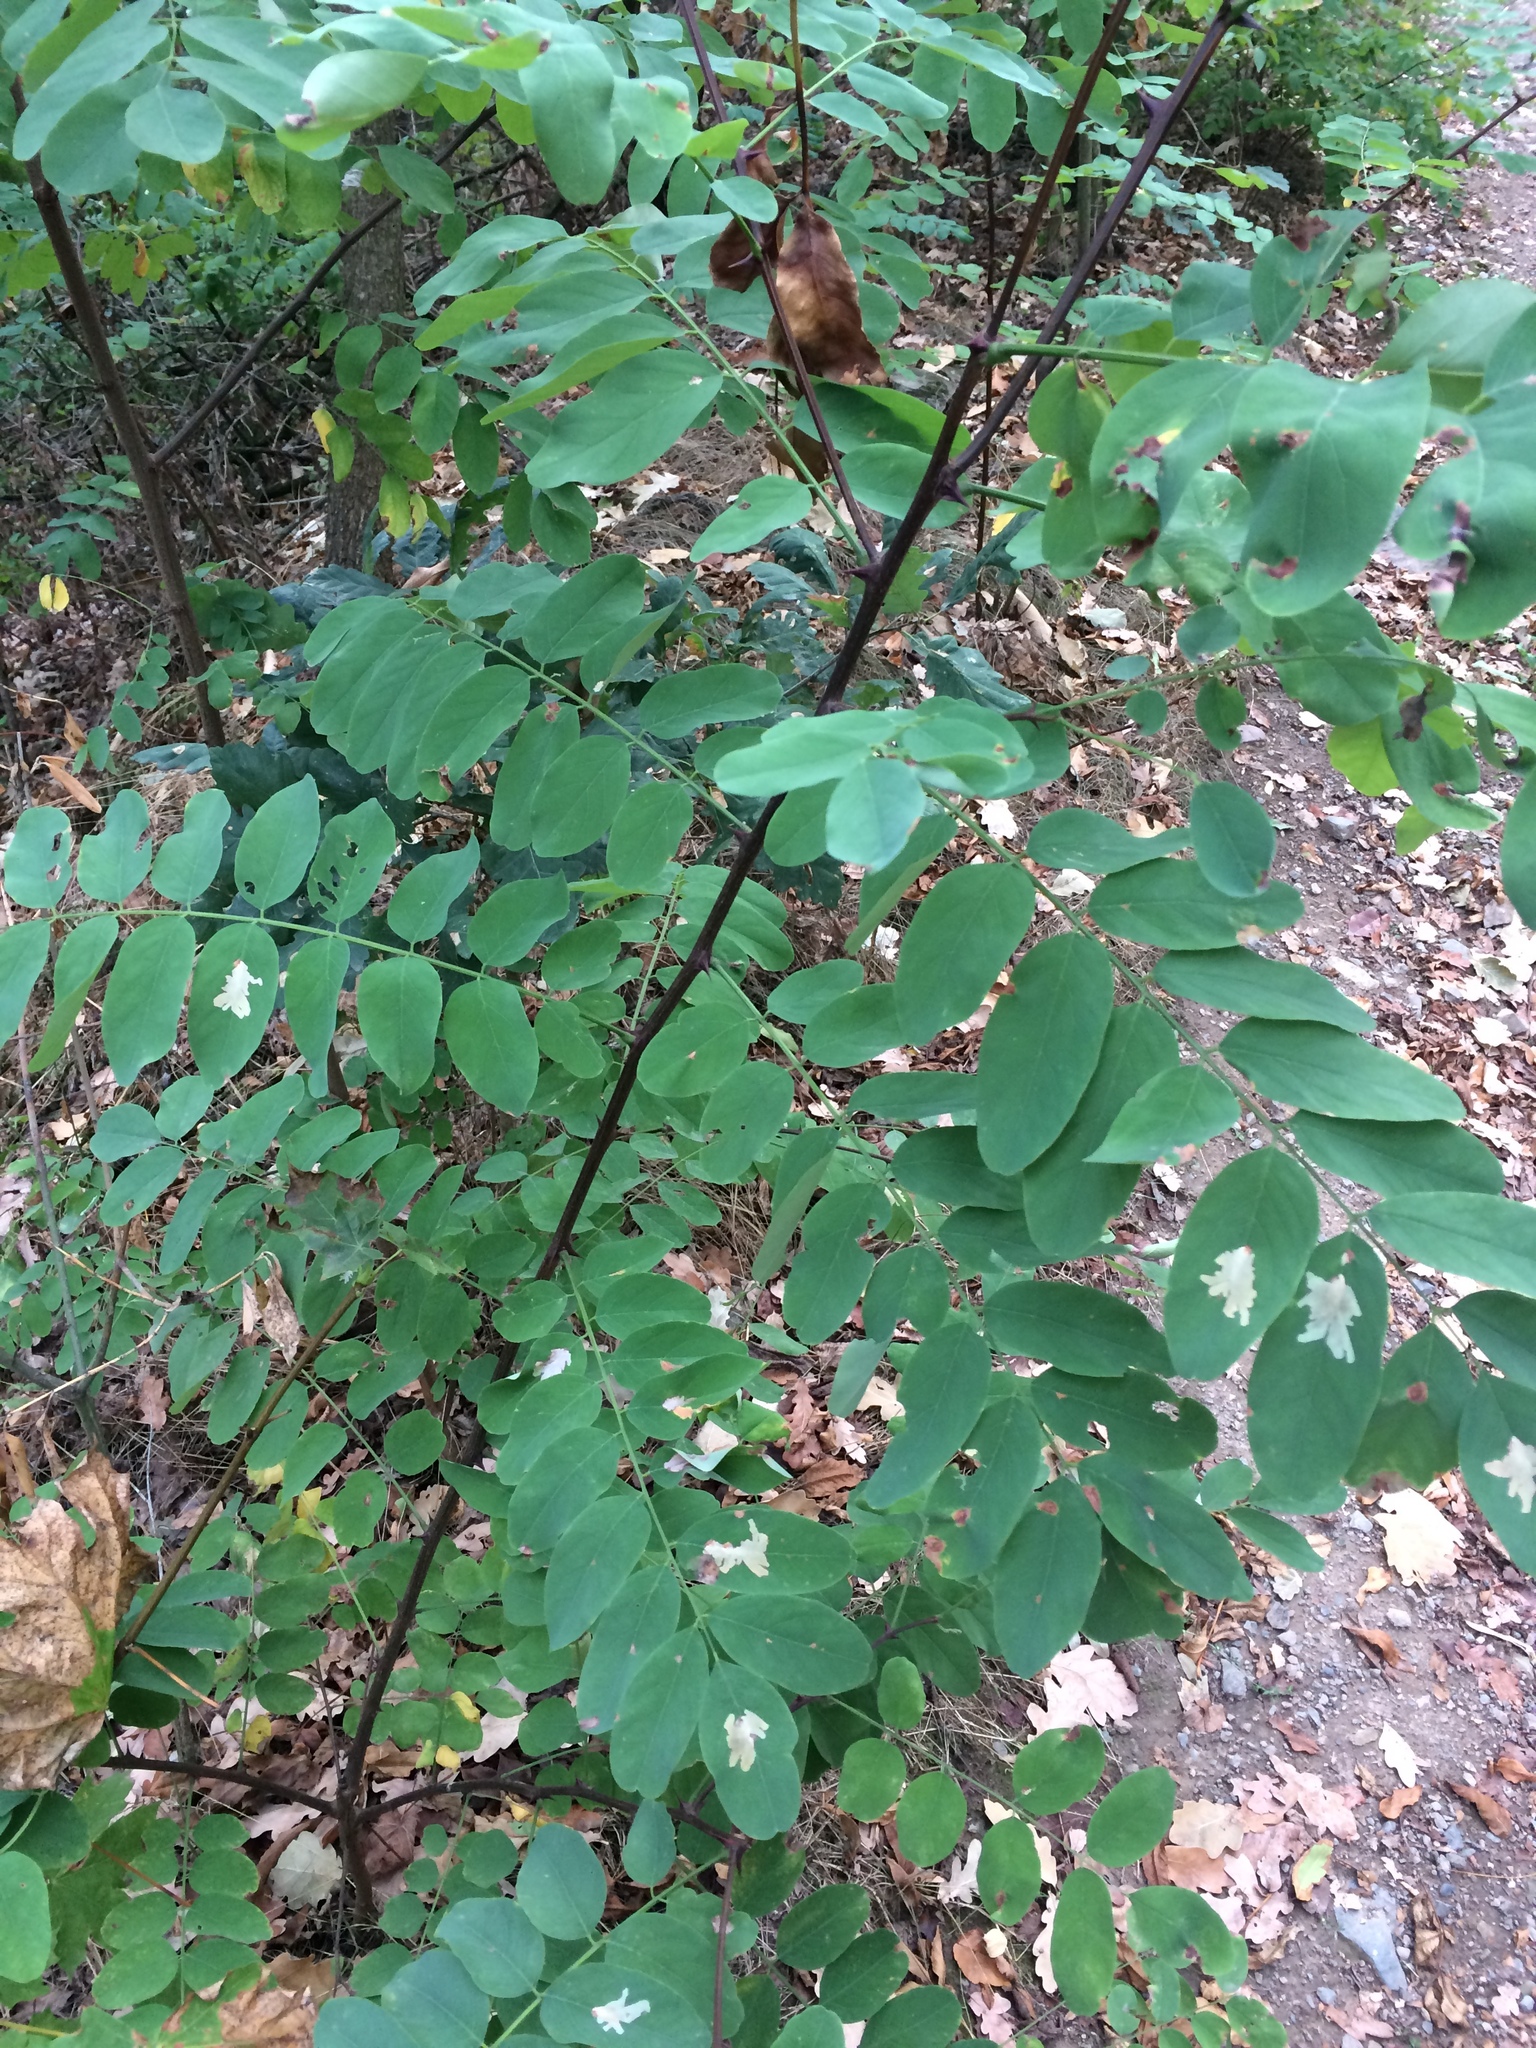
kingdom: Plantae
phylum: Tracheophyta
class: Magnoliopsida
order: Fabales
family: Fabaceae
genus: Robinia
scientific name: Robinia pseudoacacia
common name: Black locust
